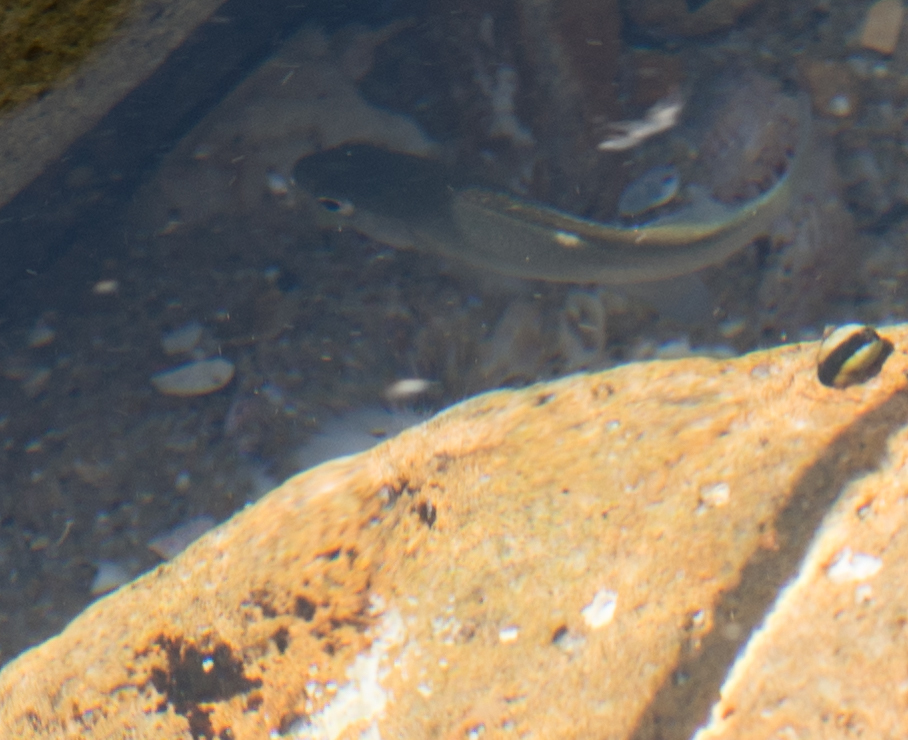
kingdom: Animalia
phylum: Chordata
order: Perciformes
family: Kyphosidae
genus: Girella
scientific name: Girella nigricans
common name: Opaleye
